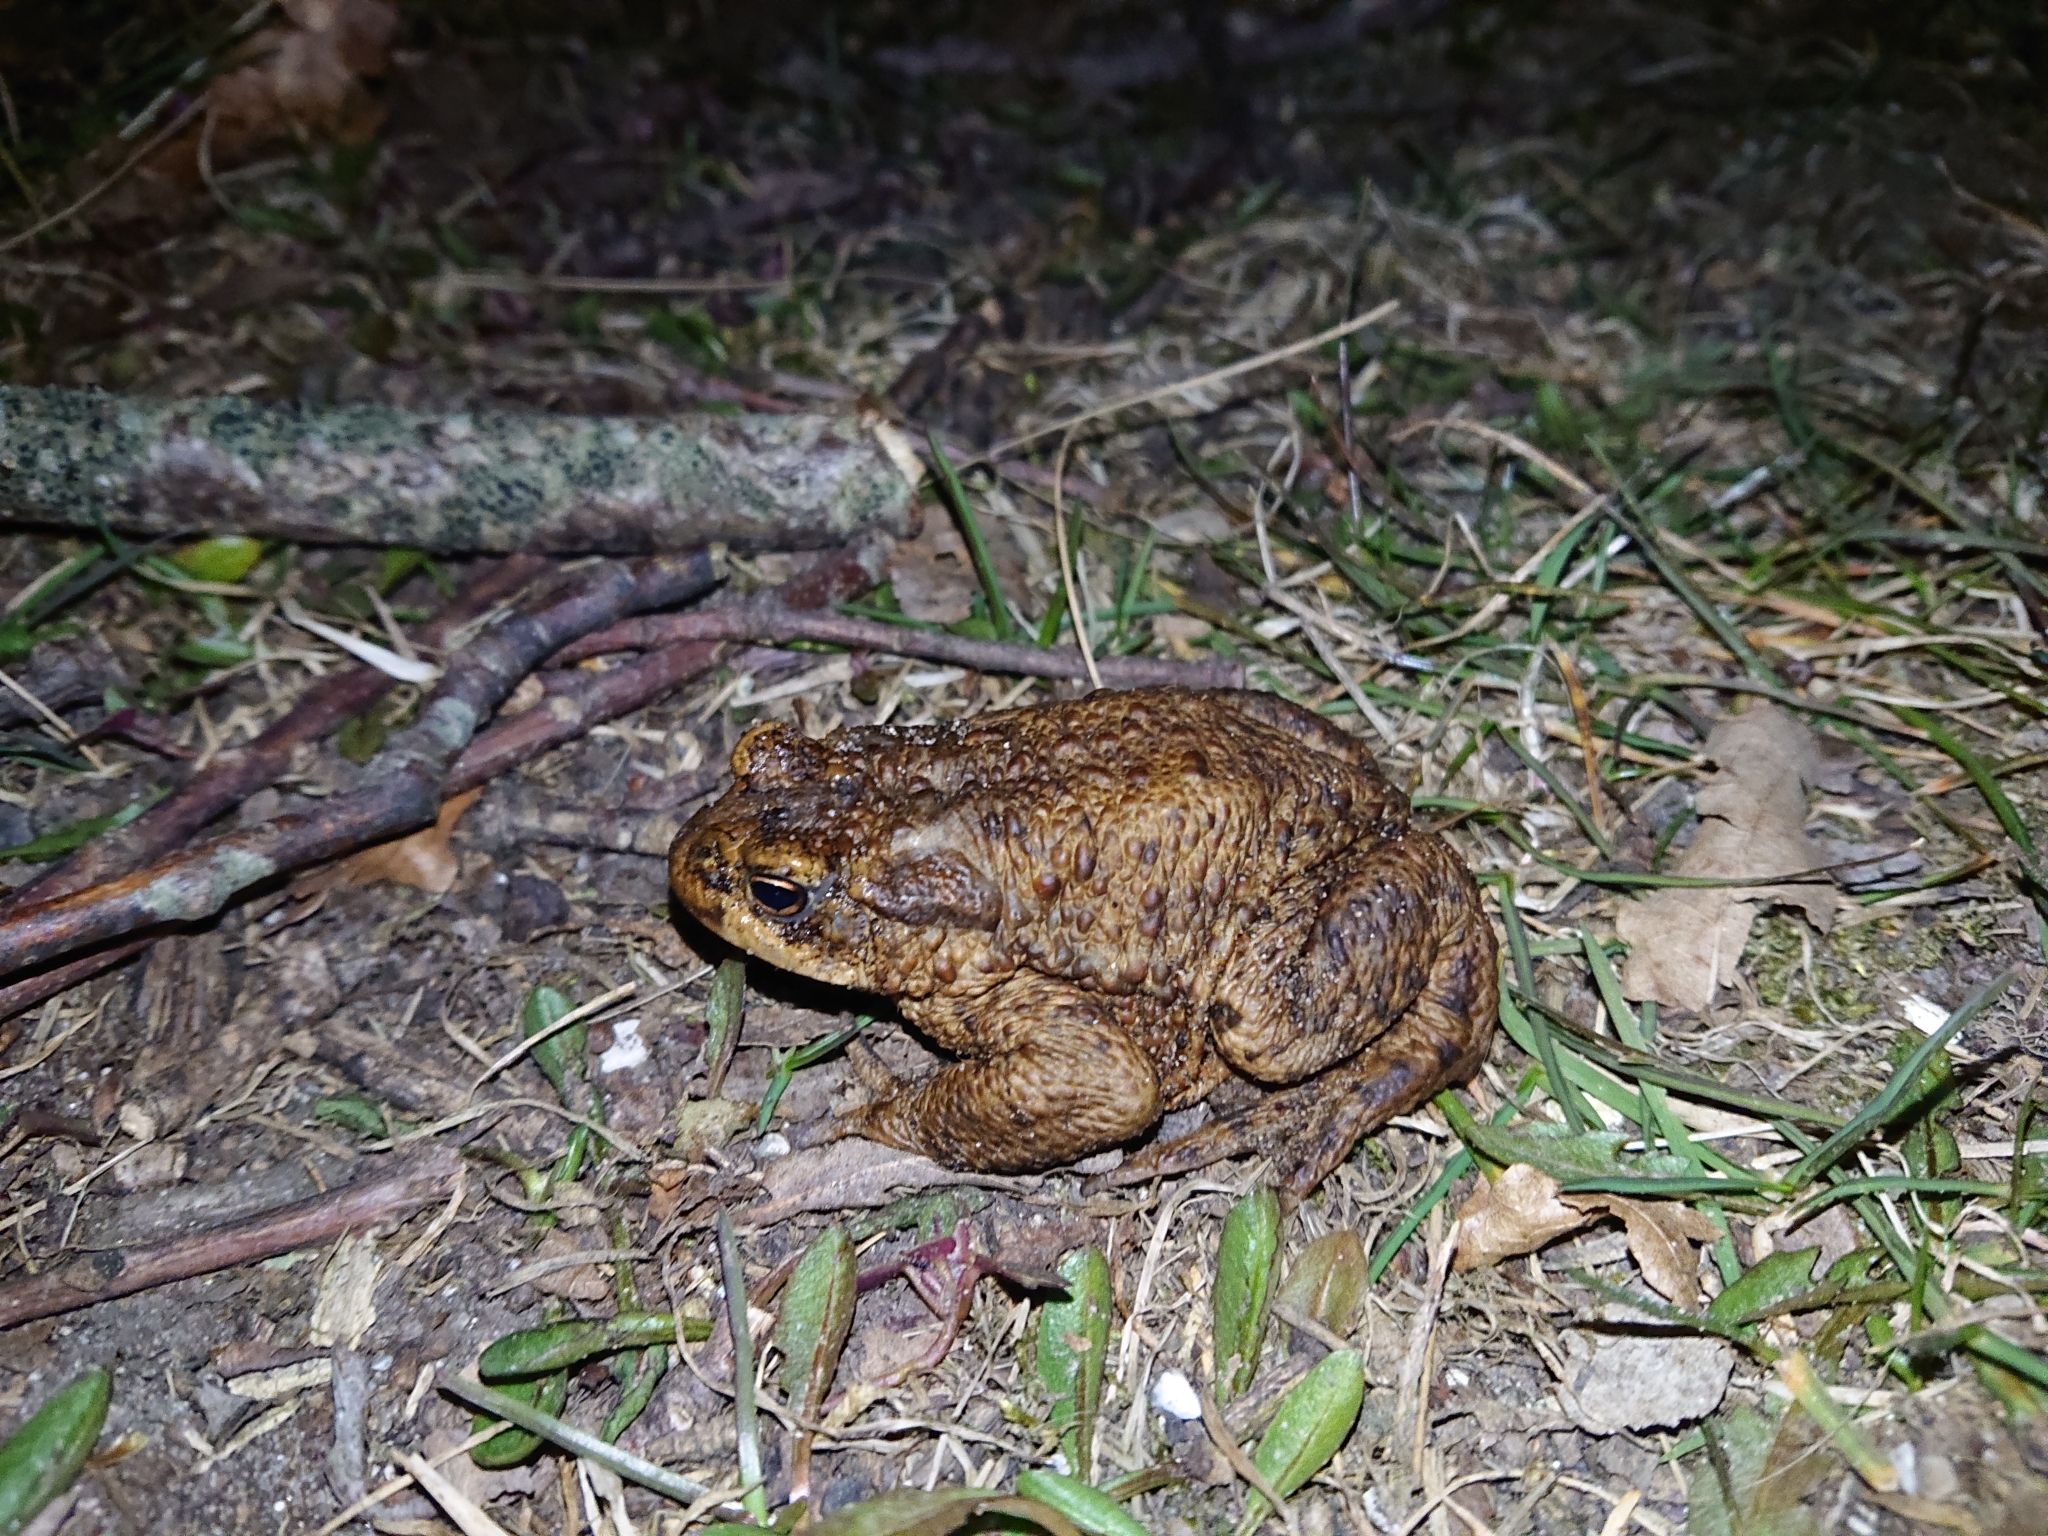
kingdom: Animalia
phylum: Chordata
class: Amphibia
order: Anura
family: Bufonidae
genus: Bufo
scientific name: Bufo bufo
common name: Common toad
